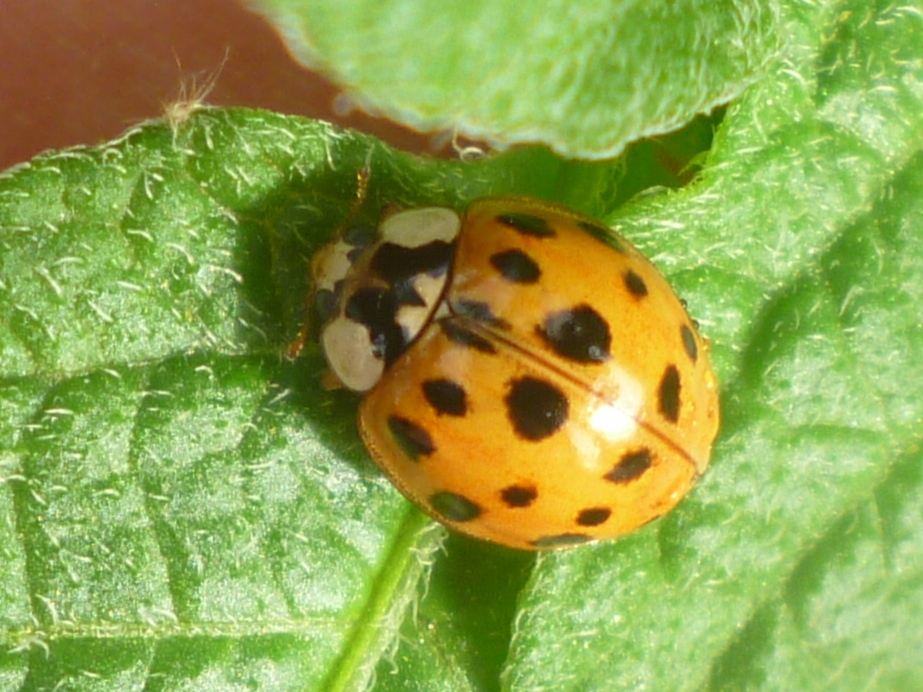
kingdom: Animalia
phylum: Arthropoda
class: Insecta
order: Coleoptera
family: Coccinellidae
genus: Harmonia
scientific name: Harmonia axyridis
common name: Harlequin ladybird
